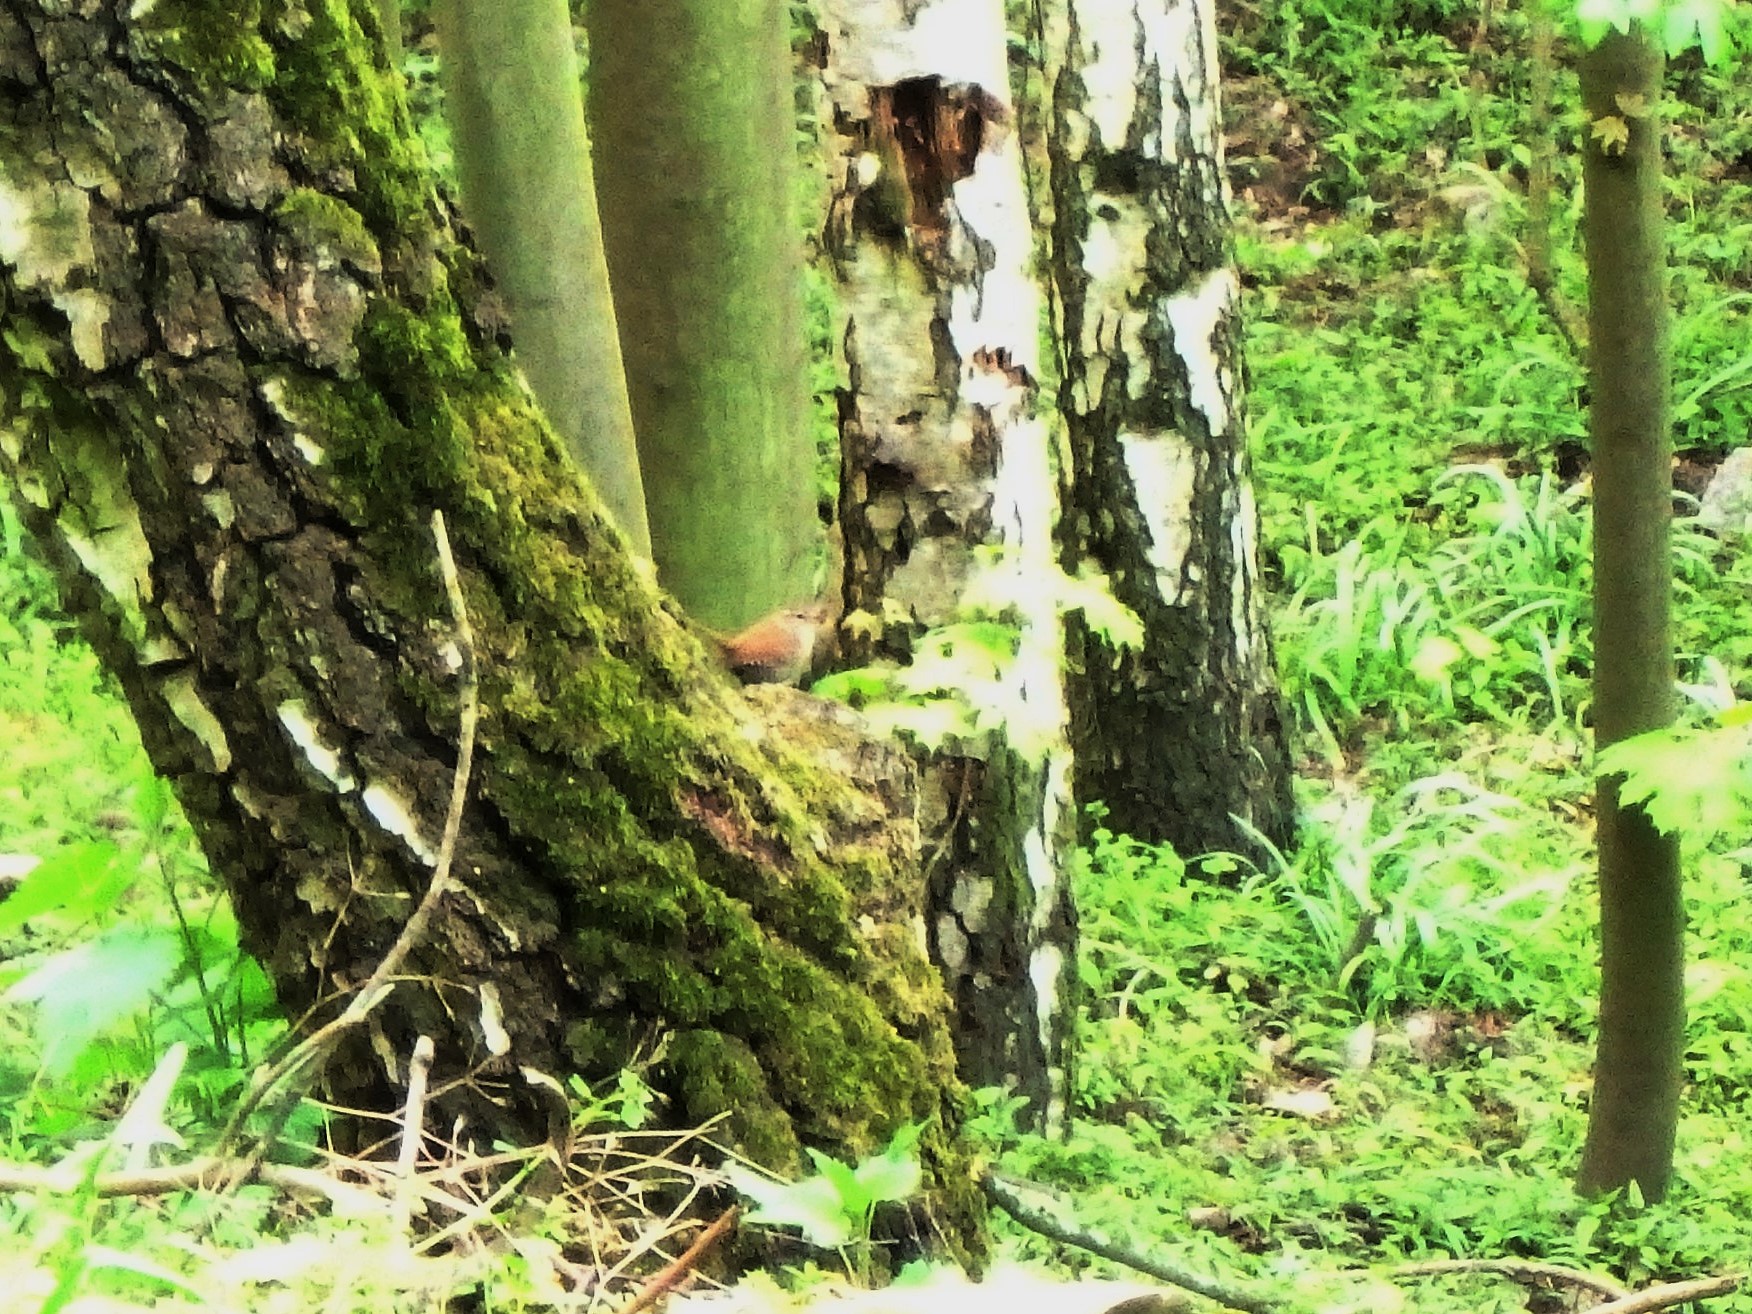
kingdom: Animalia
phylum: Chordata
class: Aves
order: Passeriformes
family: Troglodytidae
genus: Troglodytes
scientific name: Troglodytes troglodytes
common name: Eurasian wren
